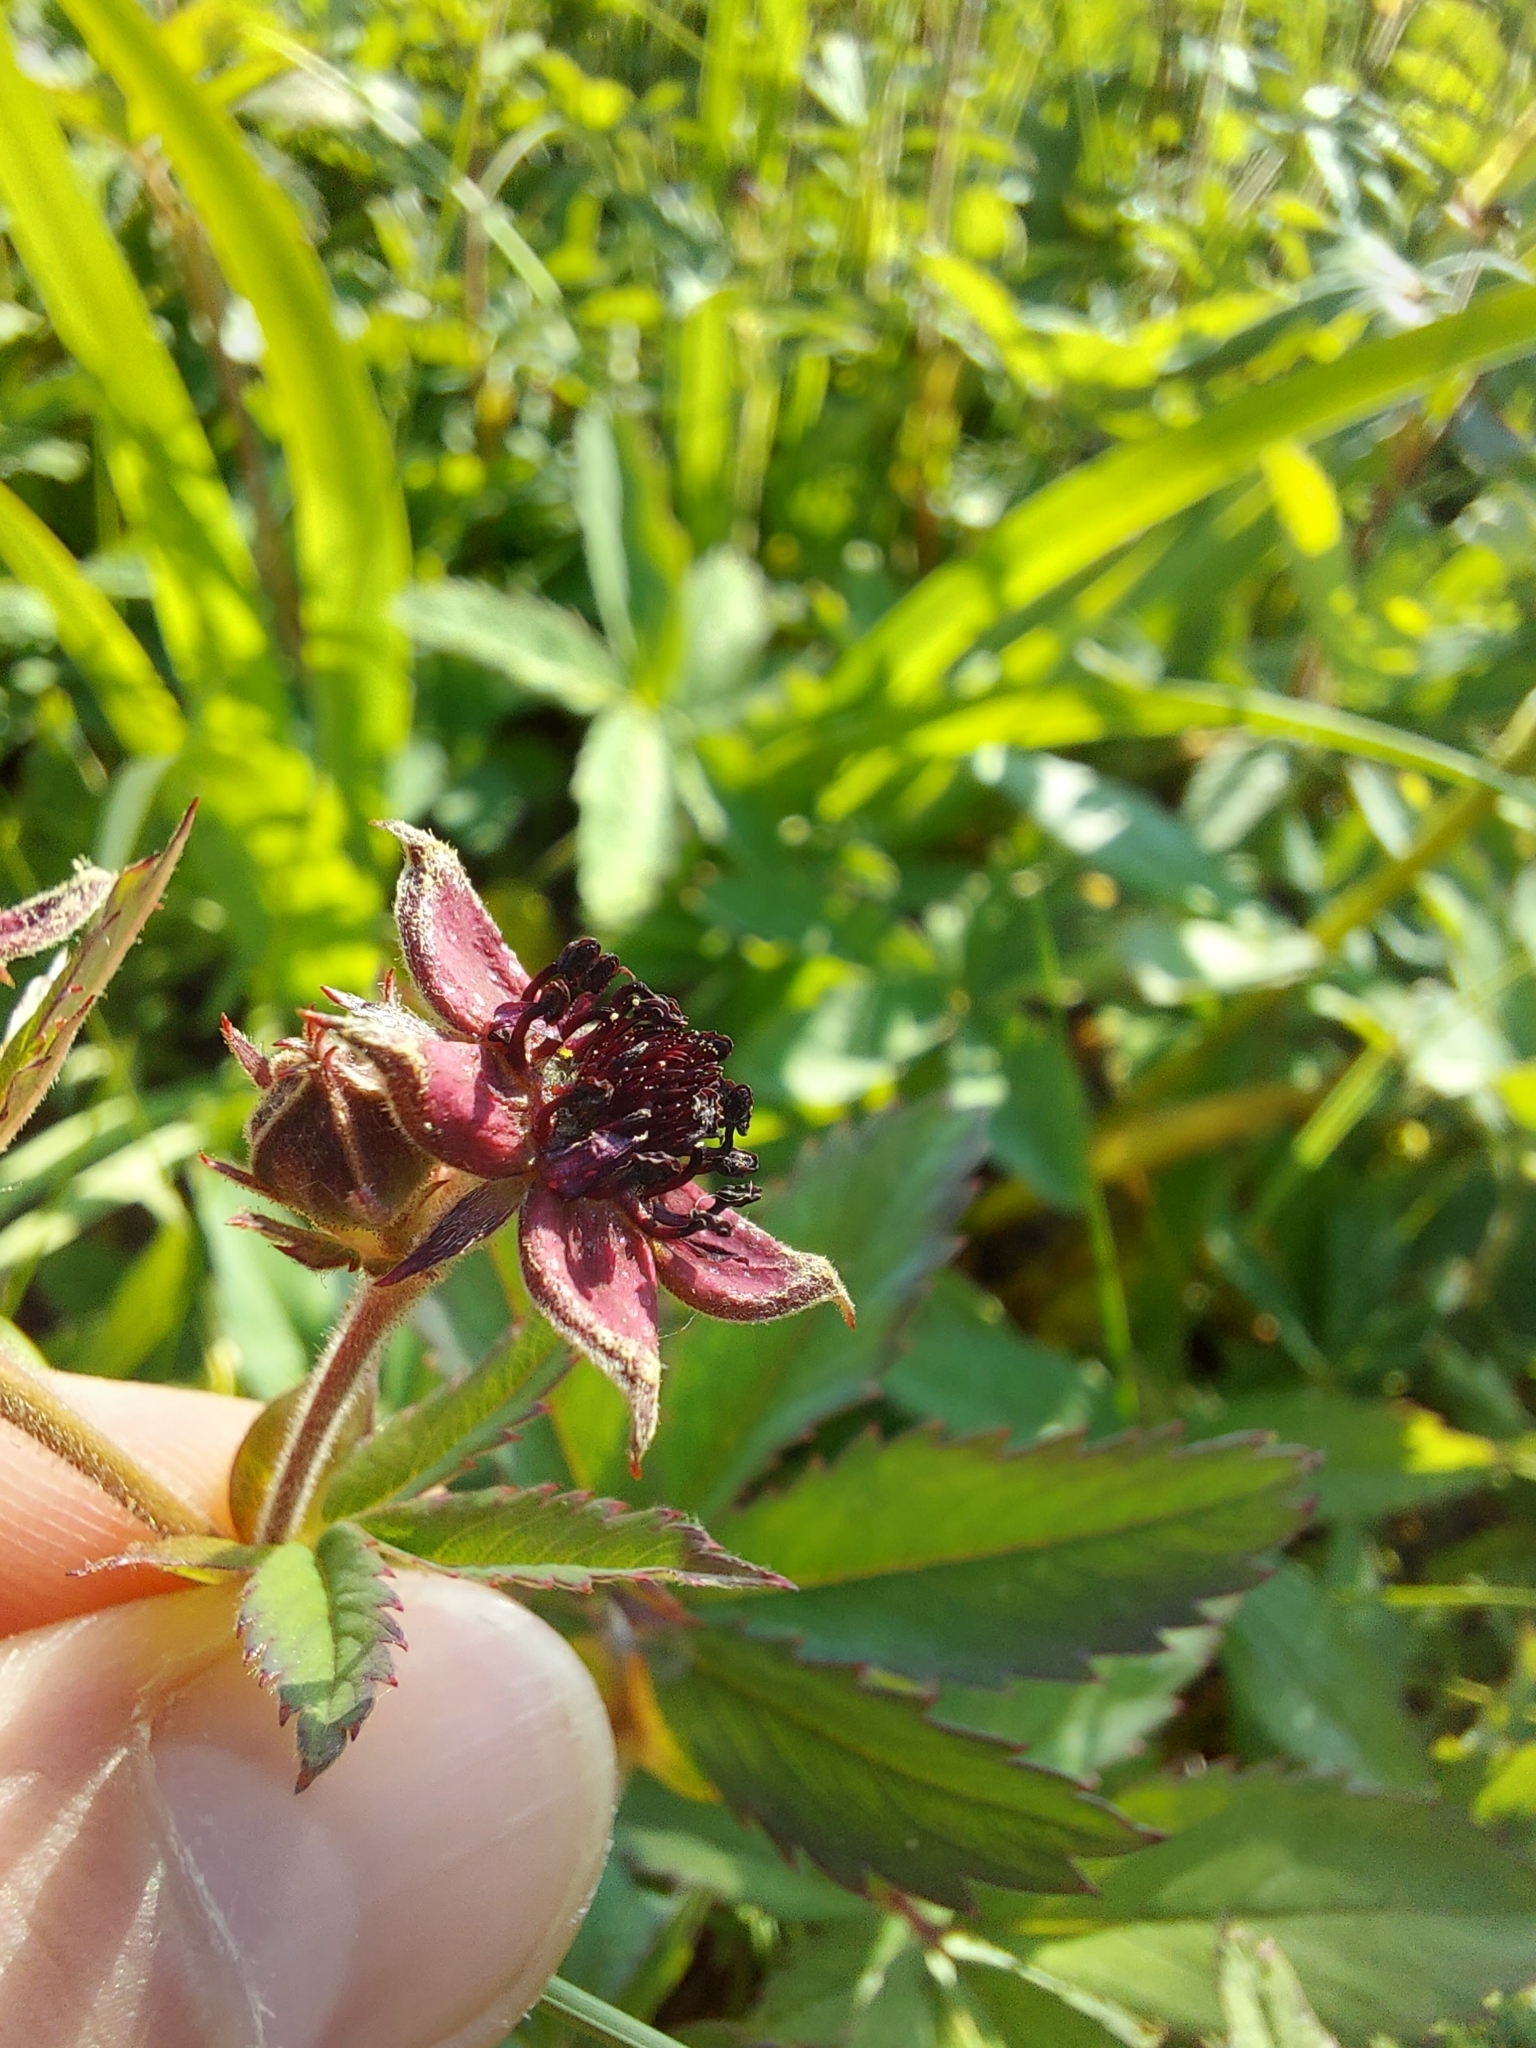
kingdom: Plantae
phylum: Tracheophyta
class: Magnoliopsida
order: Rosales
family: Rosaceae
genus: Comarum
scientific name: Comarum palustre
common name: Marsh cinquefoil
